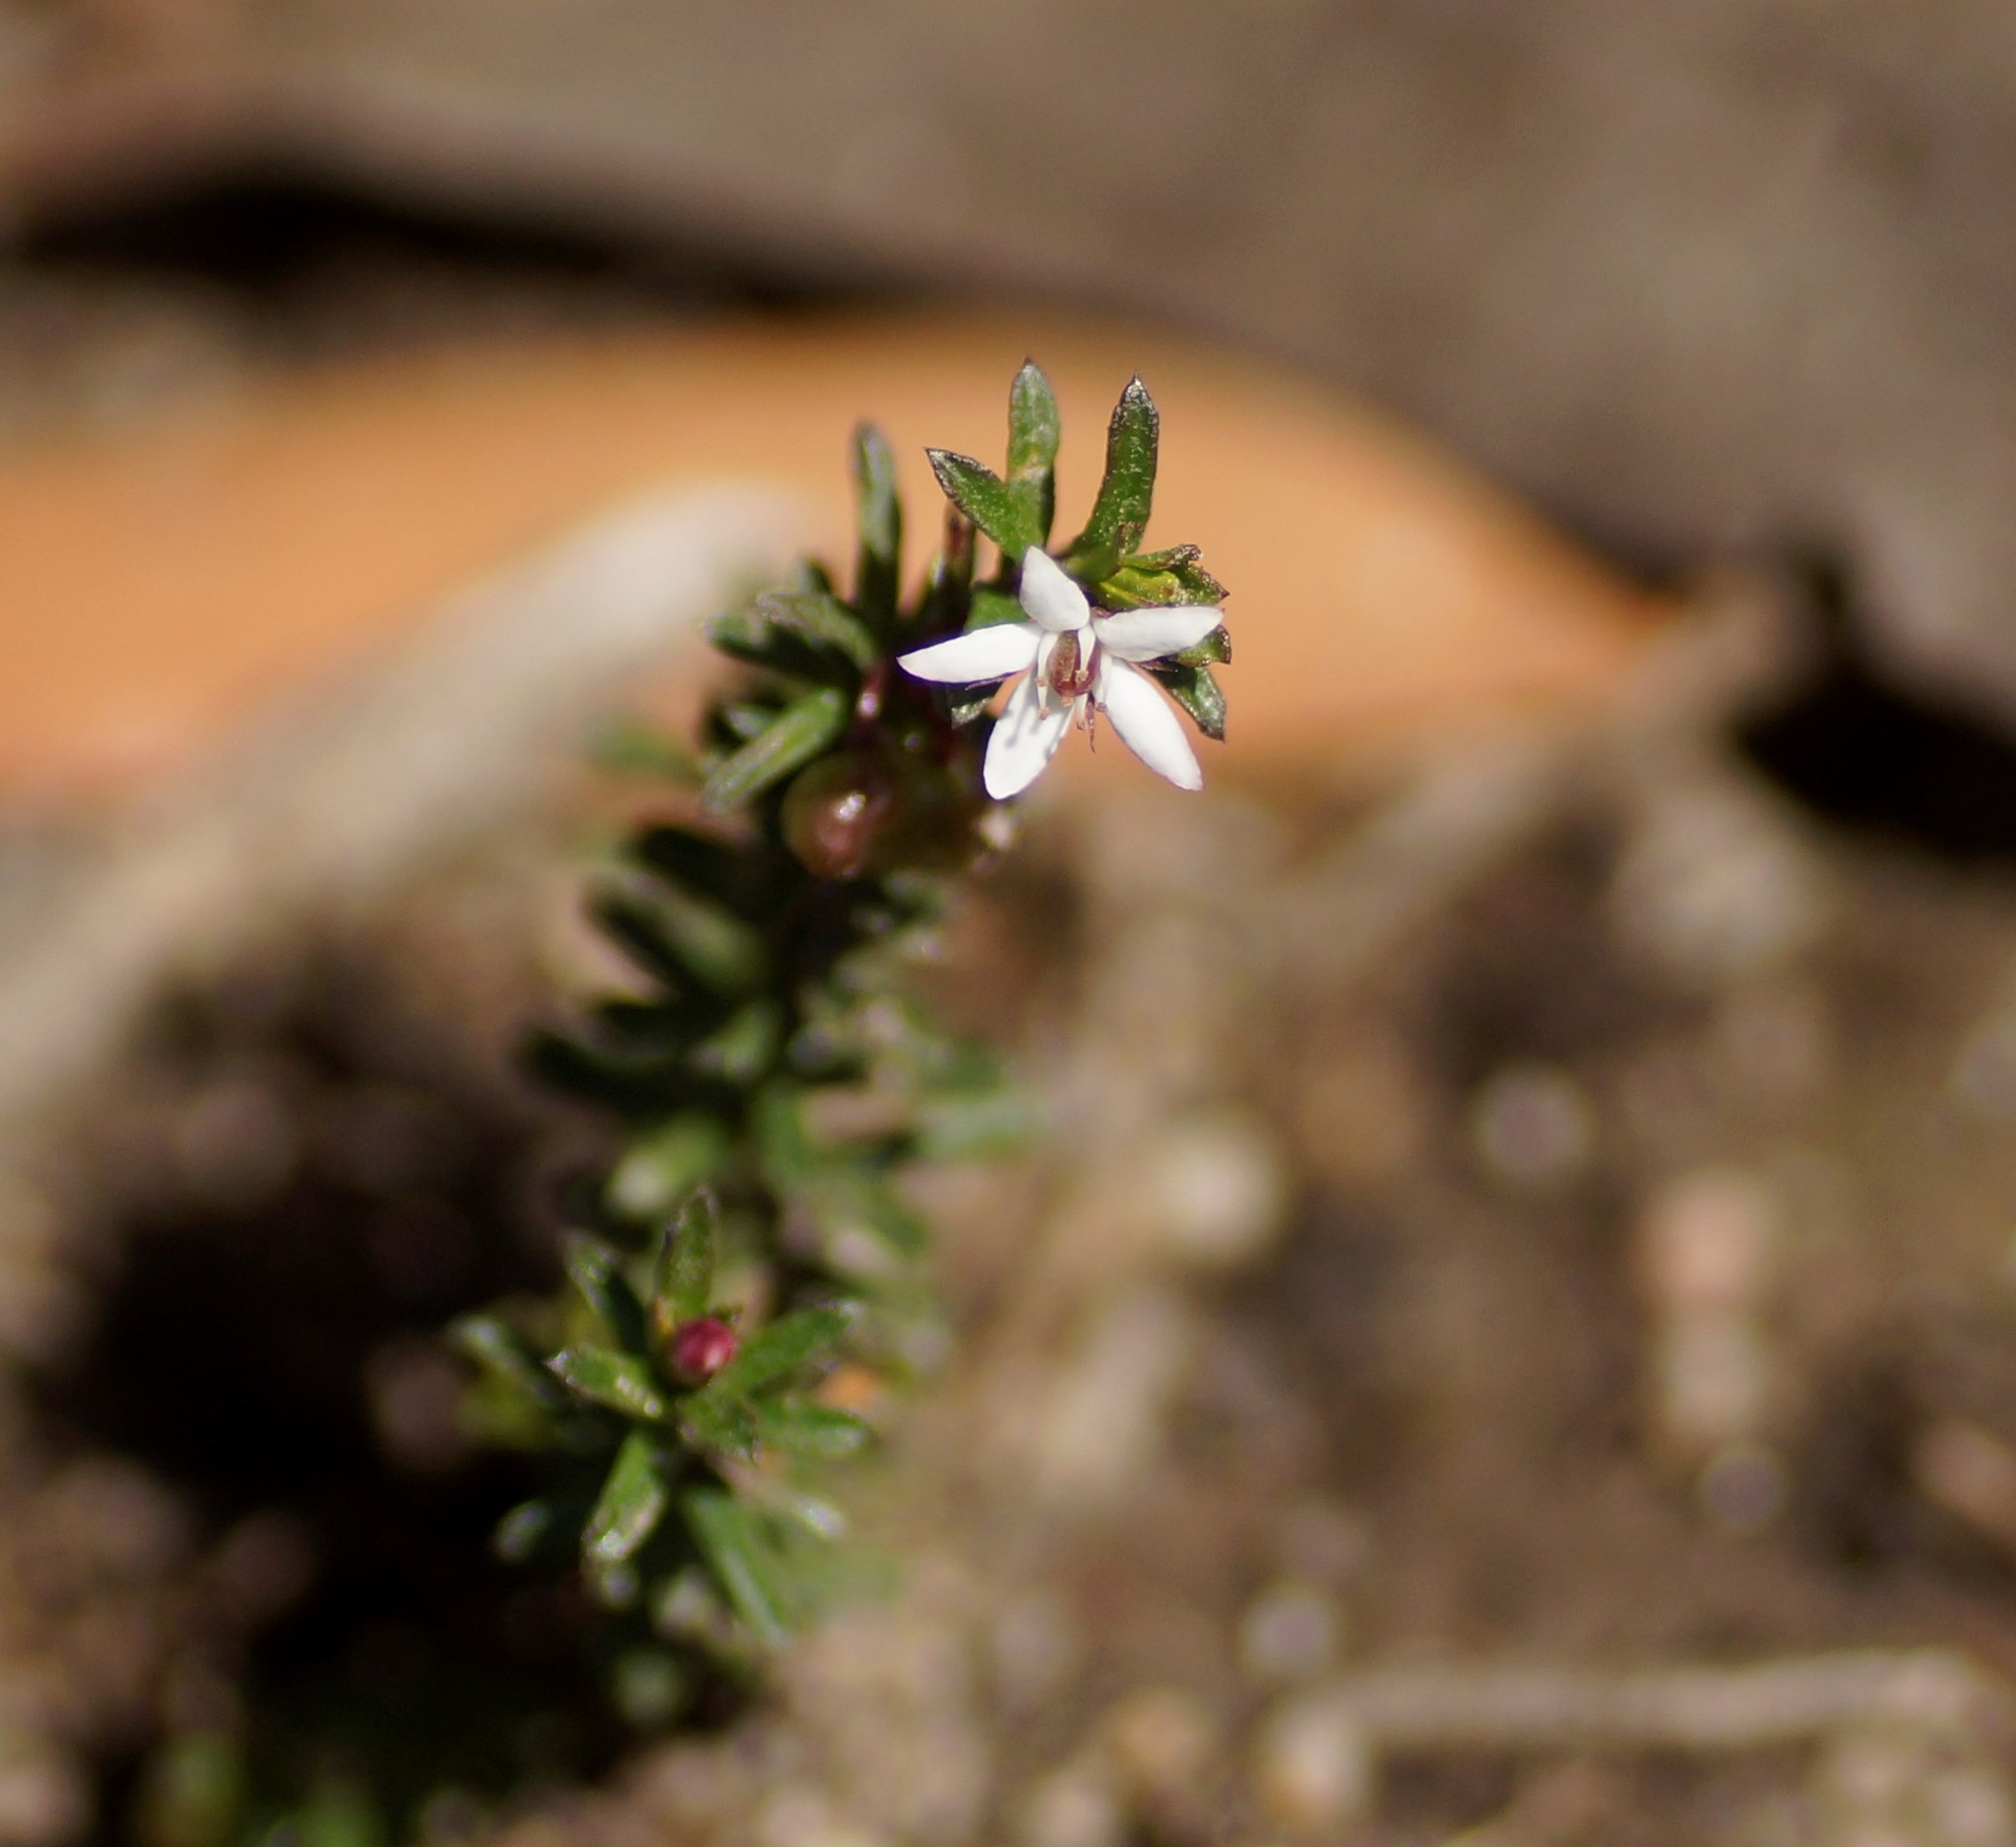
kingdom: Plantae
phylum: Tracheophyta
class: Magnoliopsida
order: Apiales
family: Pittosporaceae
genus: Rhytidosporum
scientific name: Rhytidosporum procumbens
